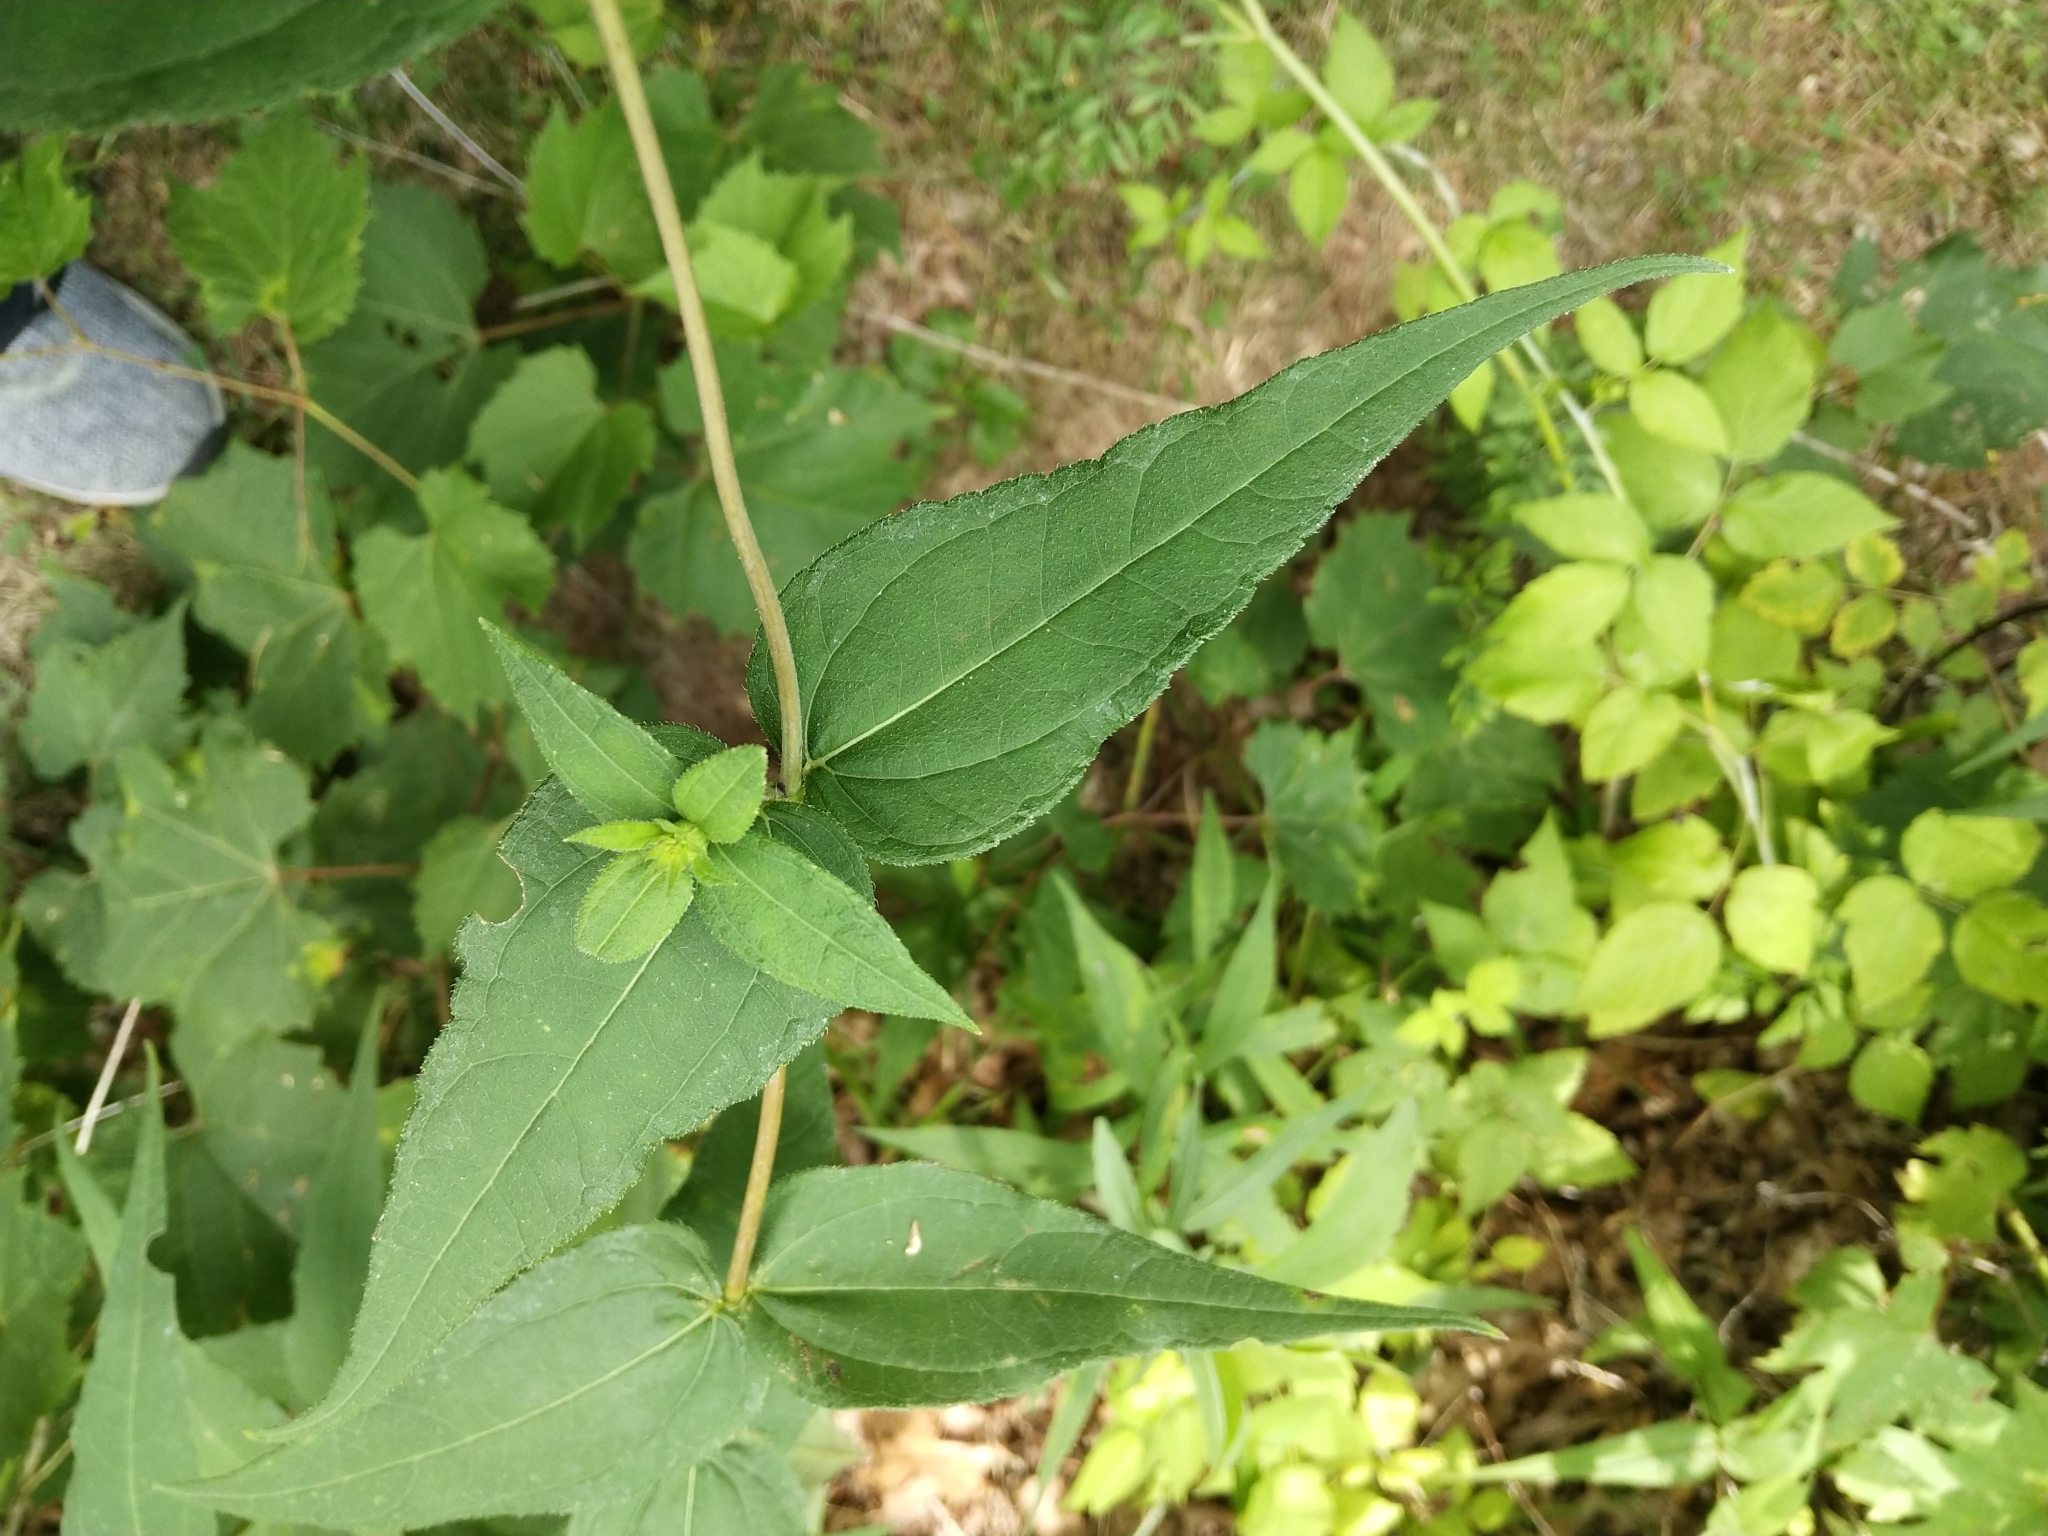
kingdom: Plantae
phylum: Tracheophyta
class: Magnoliopsida
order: Asterales
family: Asteraceae
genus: Helianthus
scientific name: Helianthus divaricatus
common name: Divergent sunflower
